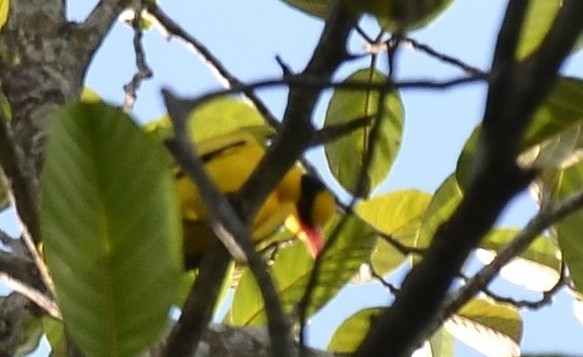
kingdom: Animalia
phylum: Chordata
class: Aves
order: Passeriformes
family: Oriolidae
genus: Oriolus
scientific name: Oriolus chinensis
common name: Black-naped oriole
